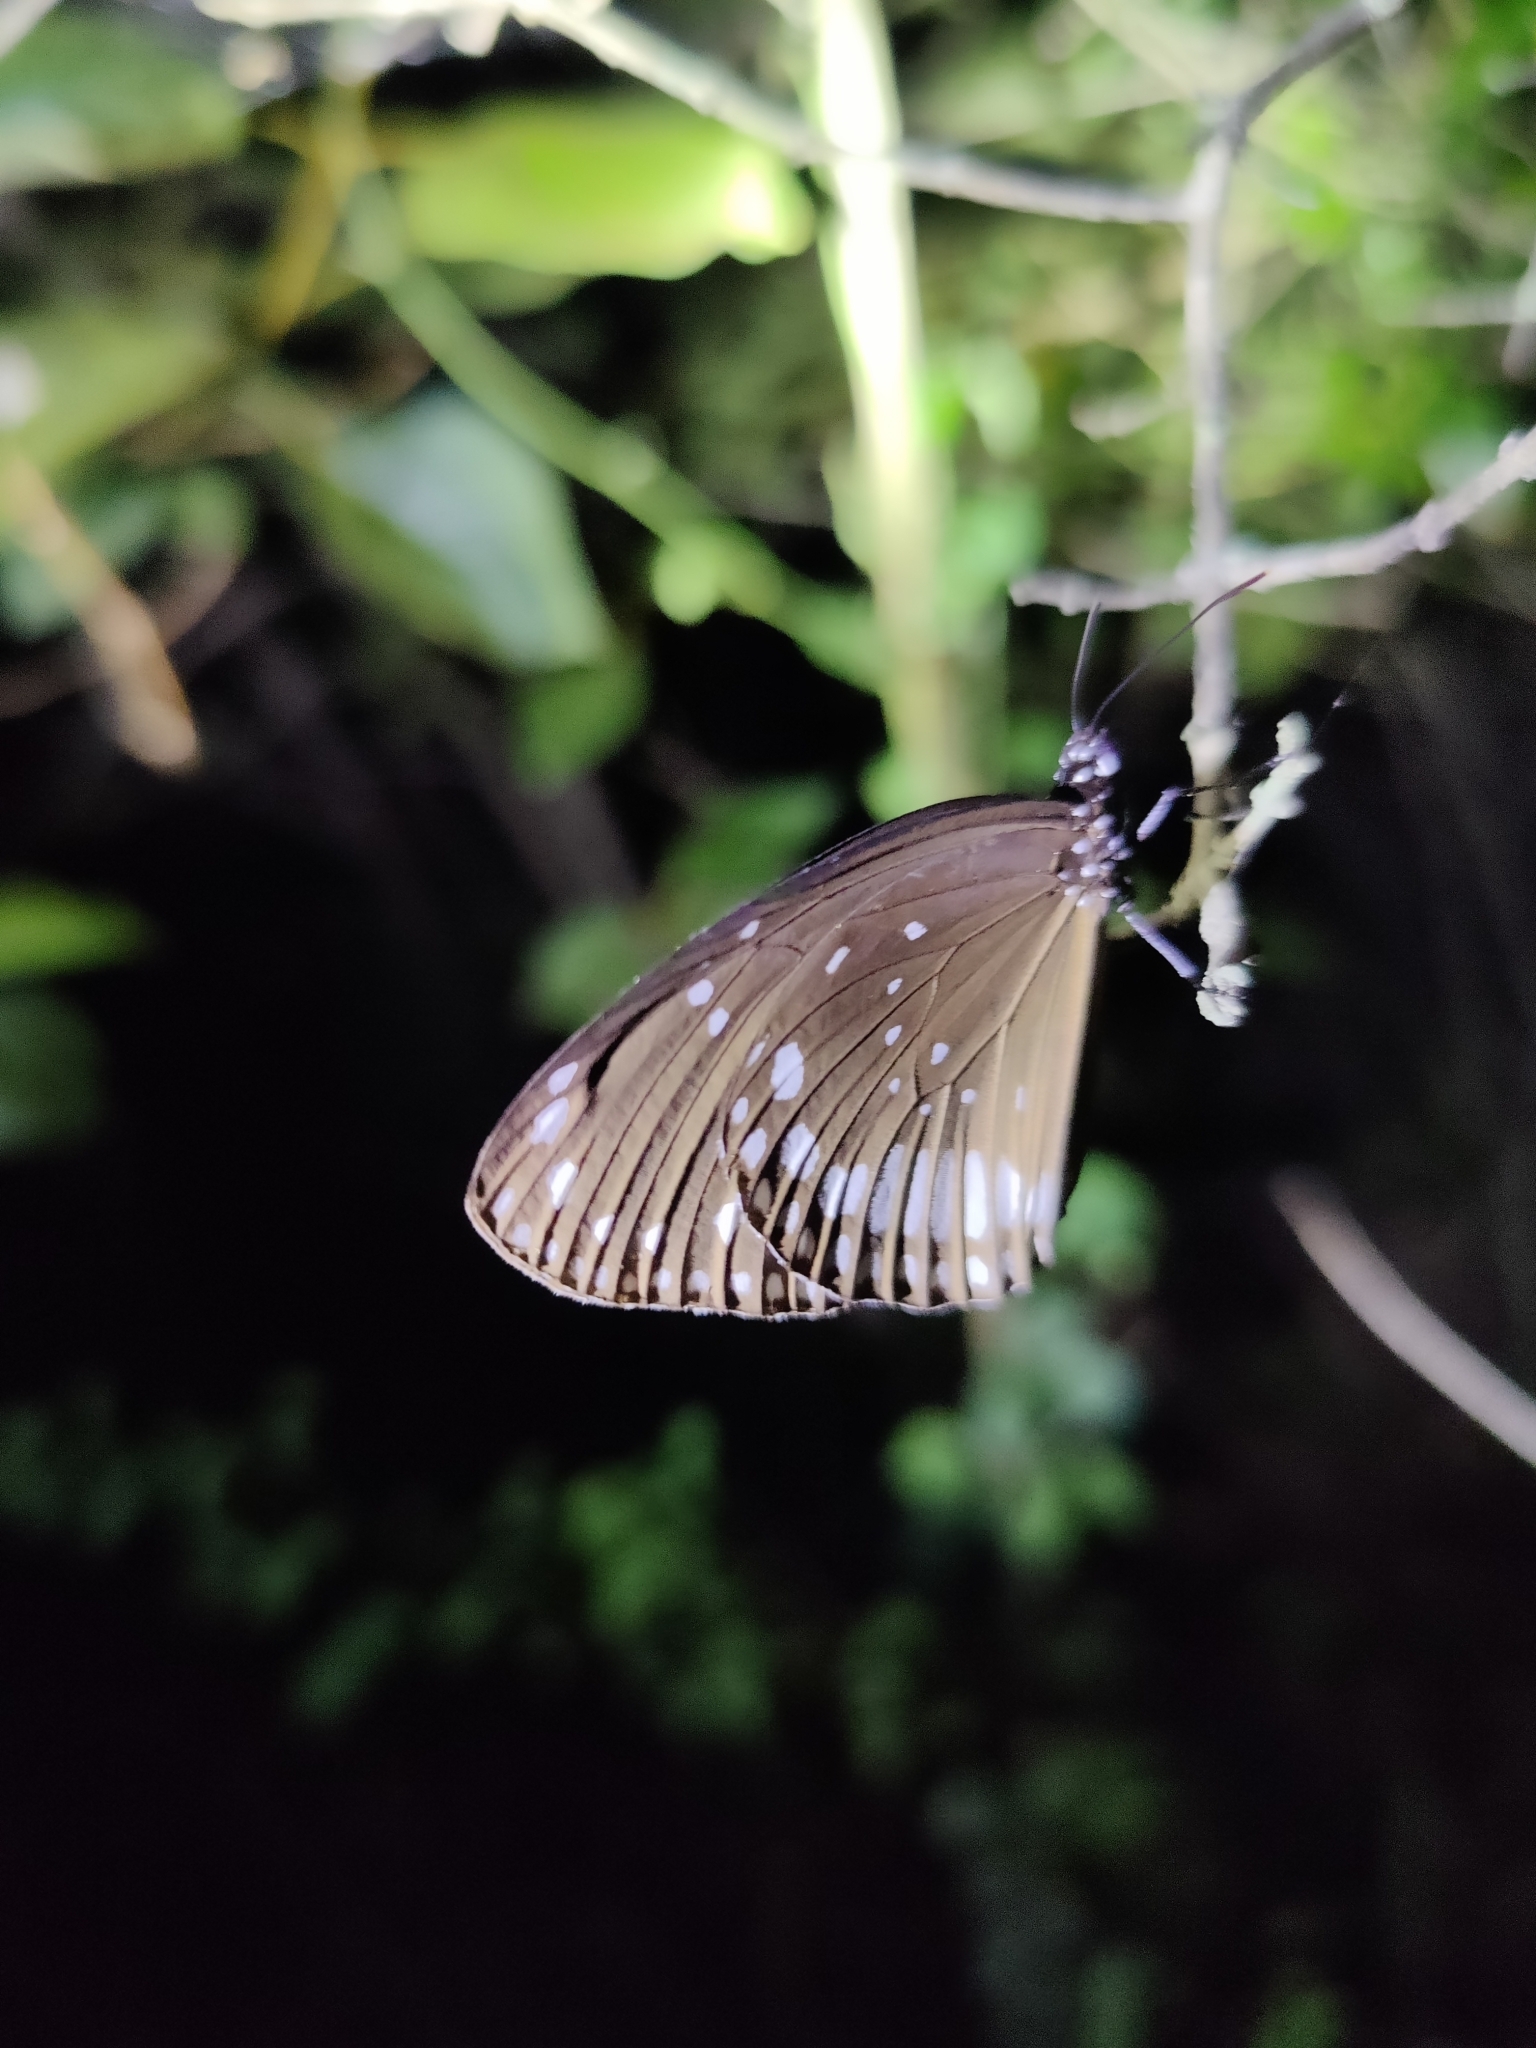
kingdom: Animalia
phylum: Arthropoda
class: Insecta
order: Lepidoptera
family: Nymphalidae
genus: Euploea
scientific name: Euploea sylvester
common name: Double-branded crow butterfly
